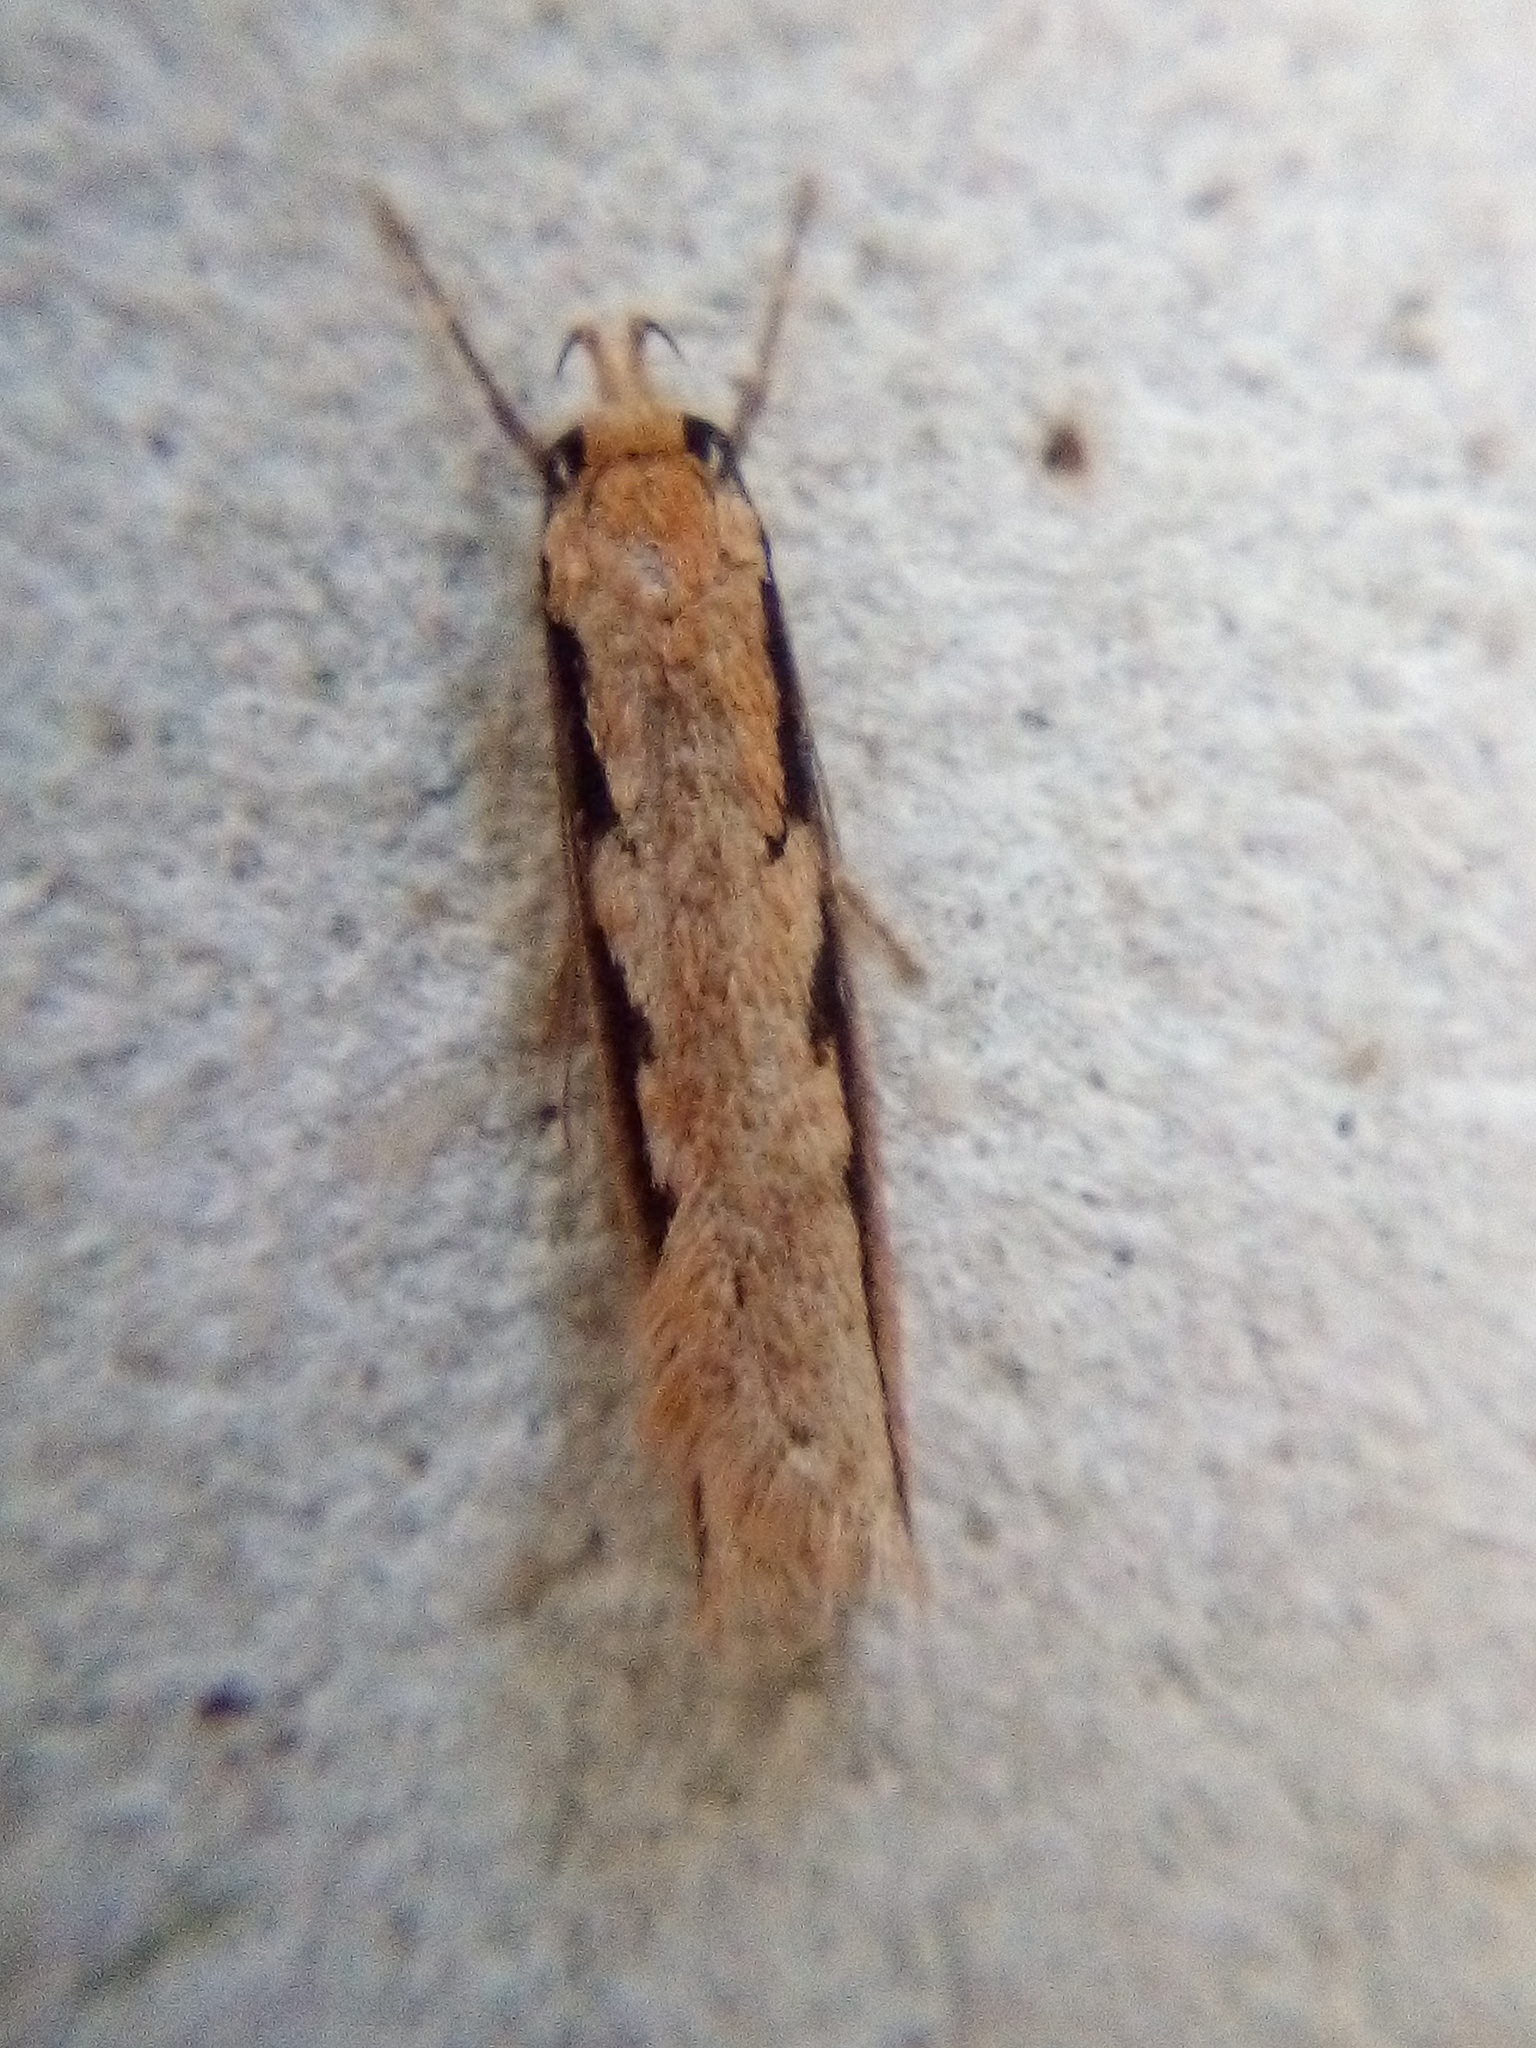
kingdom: Animalia
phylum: Arthropoda
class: Insecta
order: Lepidoptera
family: Oecophoridae
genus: Leptocroca
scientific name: Leptocroca sanguinolenta
